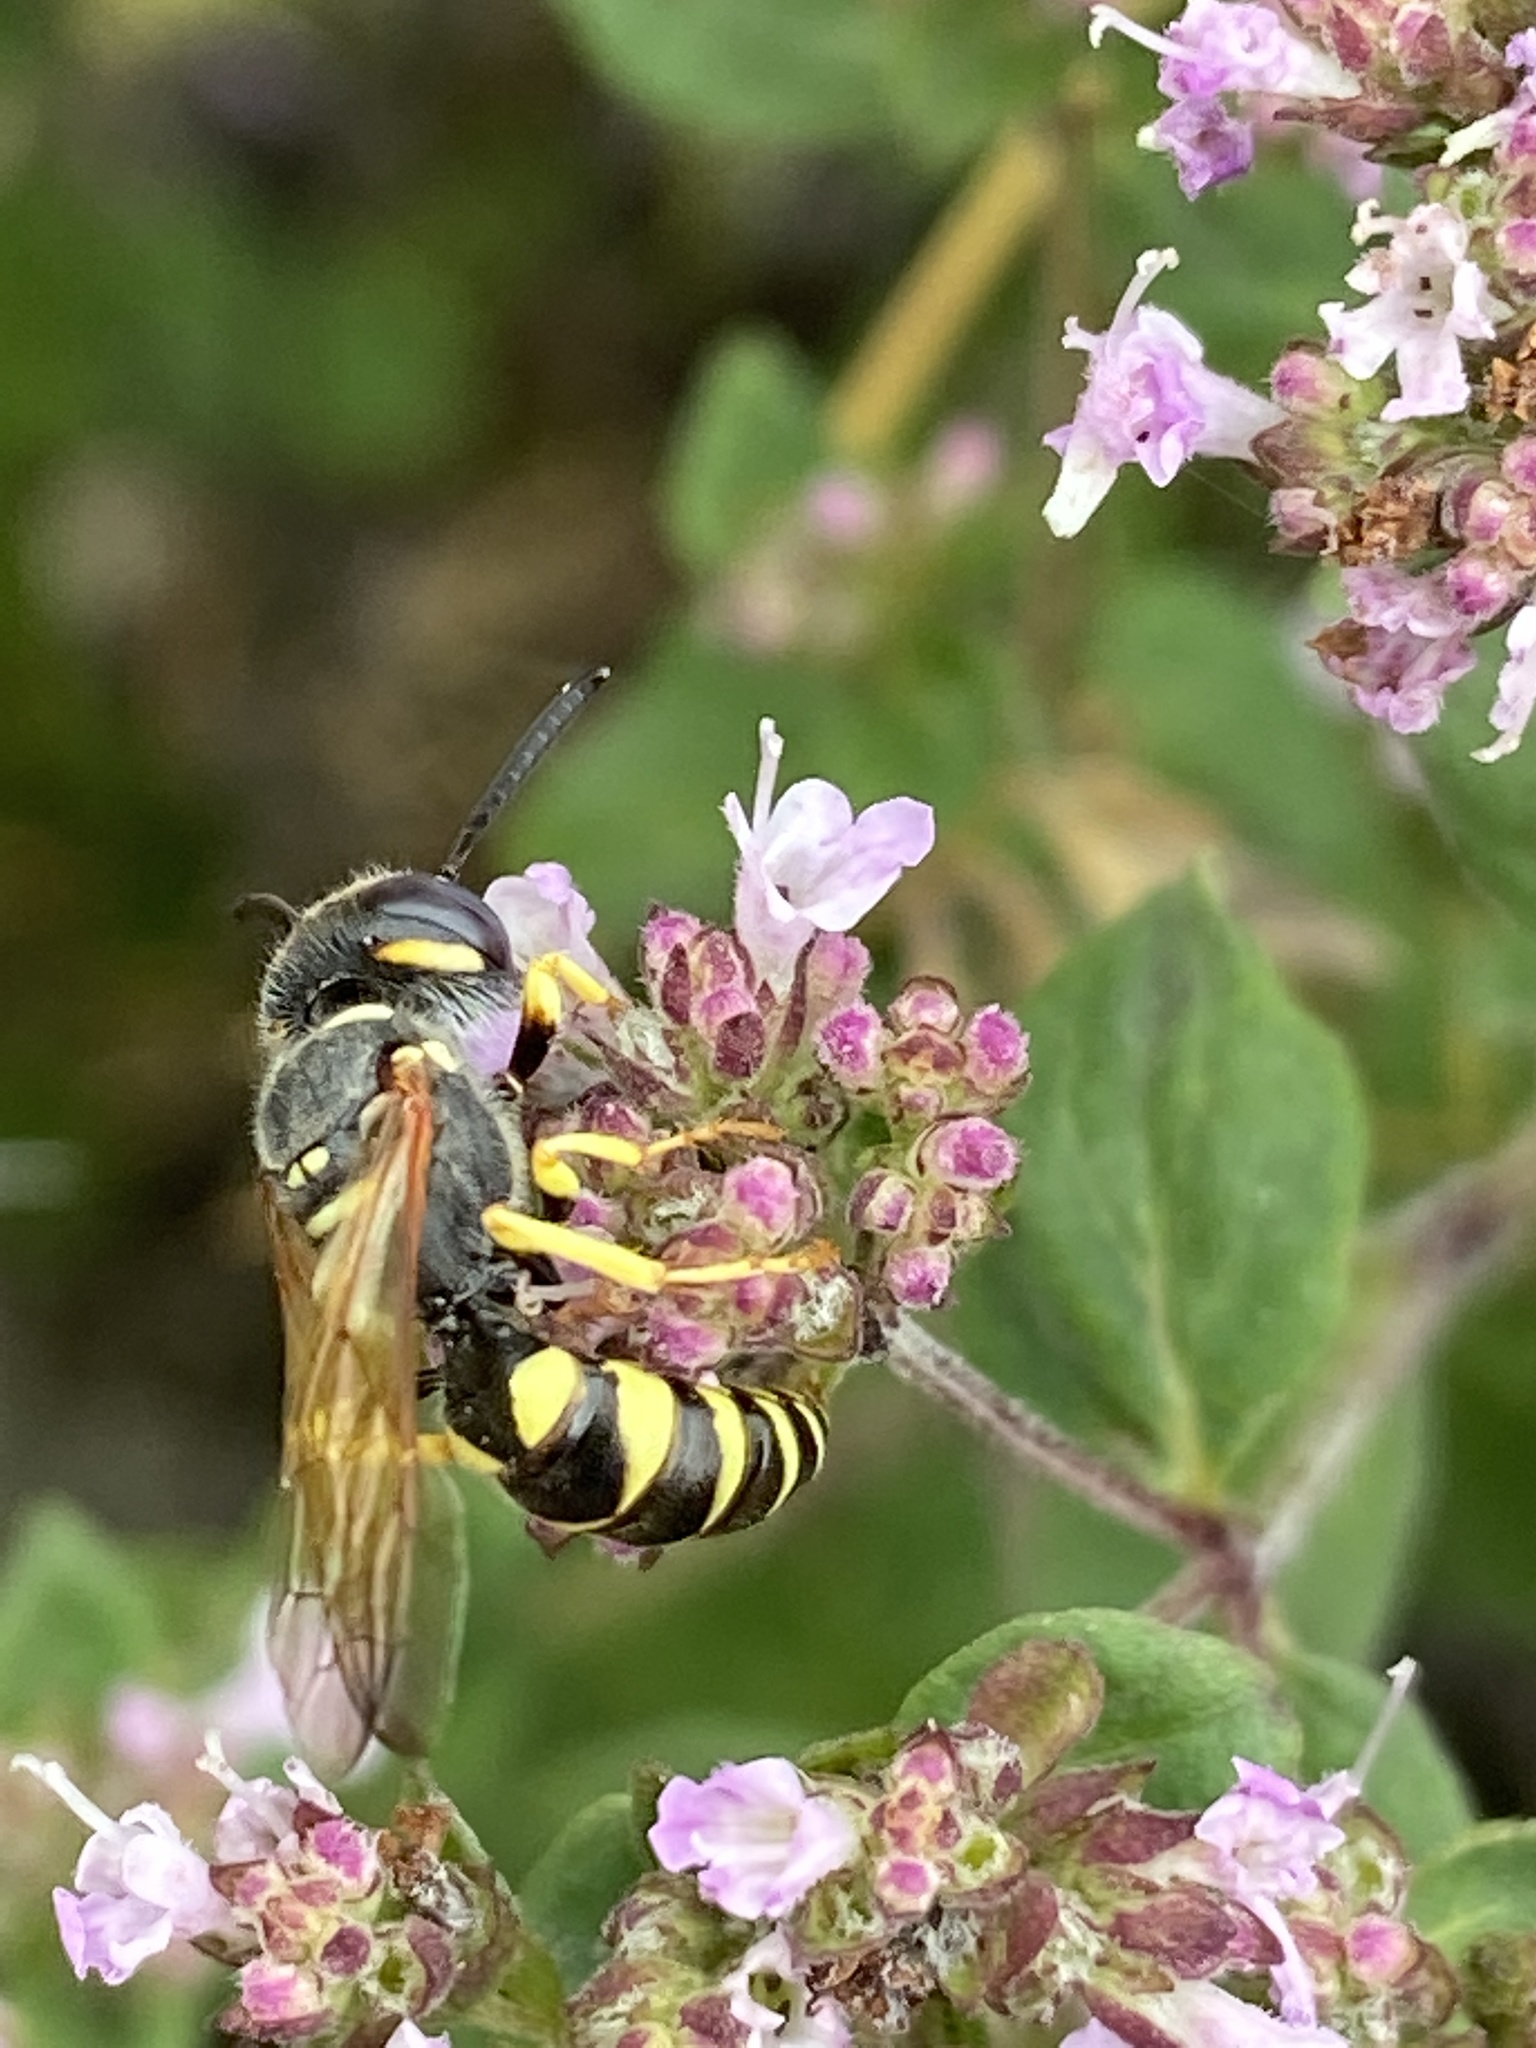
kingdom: Animalia
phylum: Arthropoda
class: Insecta
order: Hymenoptera
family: Crabronidae
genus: Philanthus
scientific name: Philanthus triangulum
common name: Bee wolf
